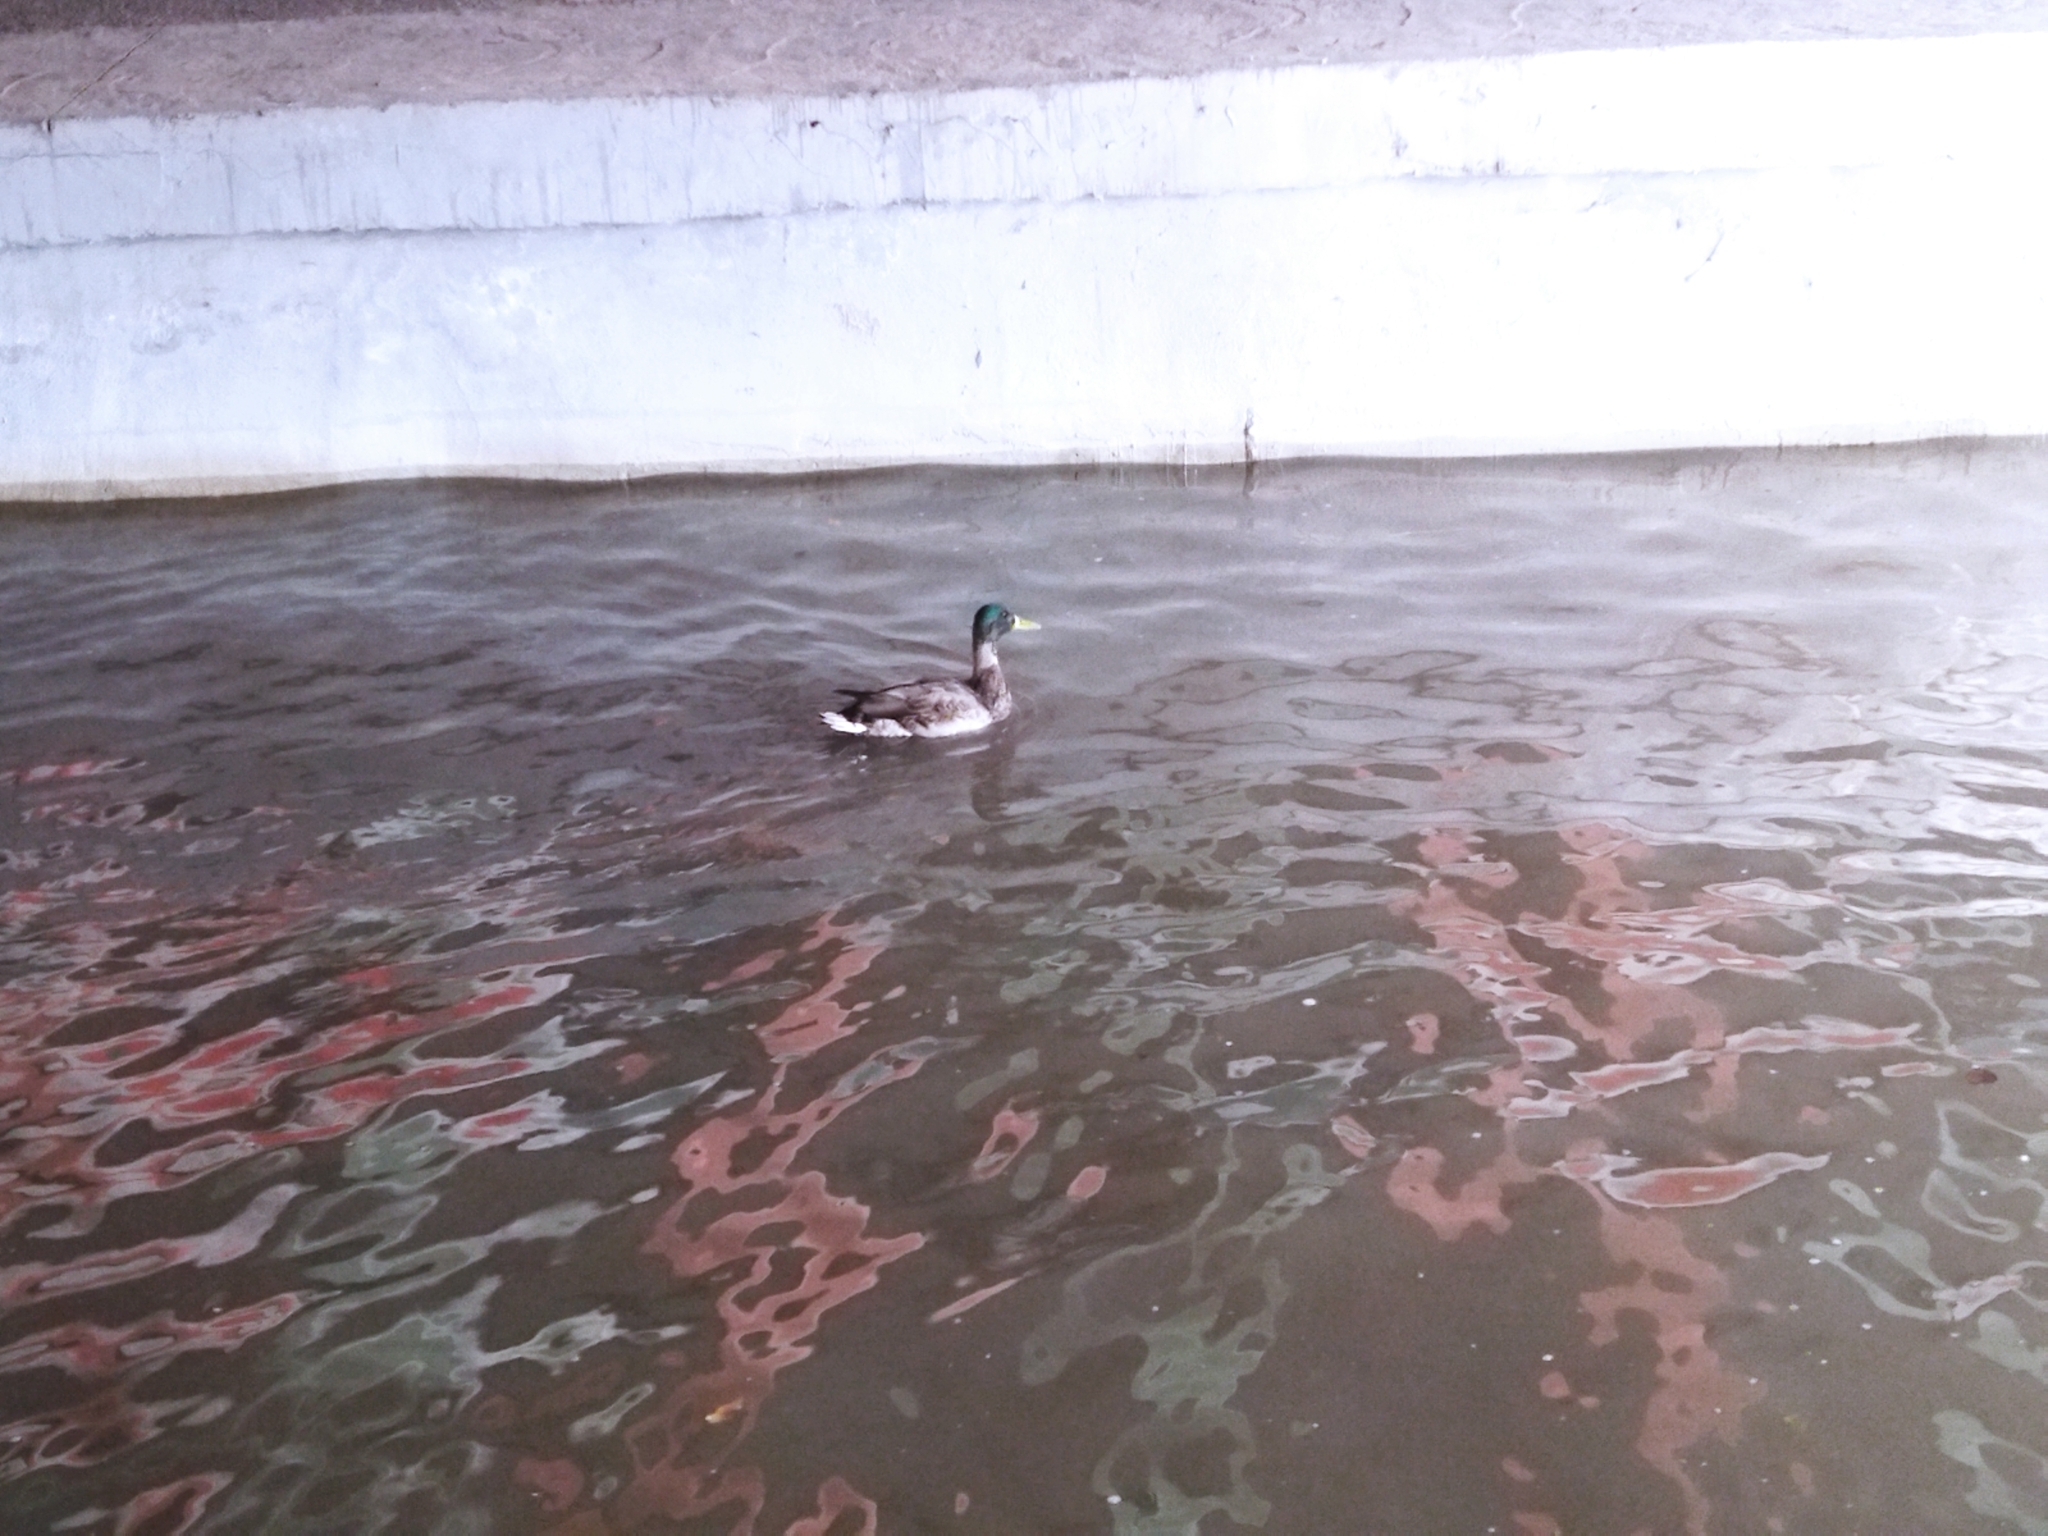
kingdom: Animalia
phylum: Chordata
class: Aves
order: Anseriformes
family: Anatidae
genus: Anas
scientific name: Anas platyrhynchos
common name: Mallard
